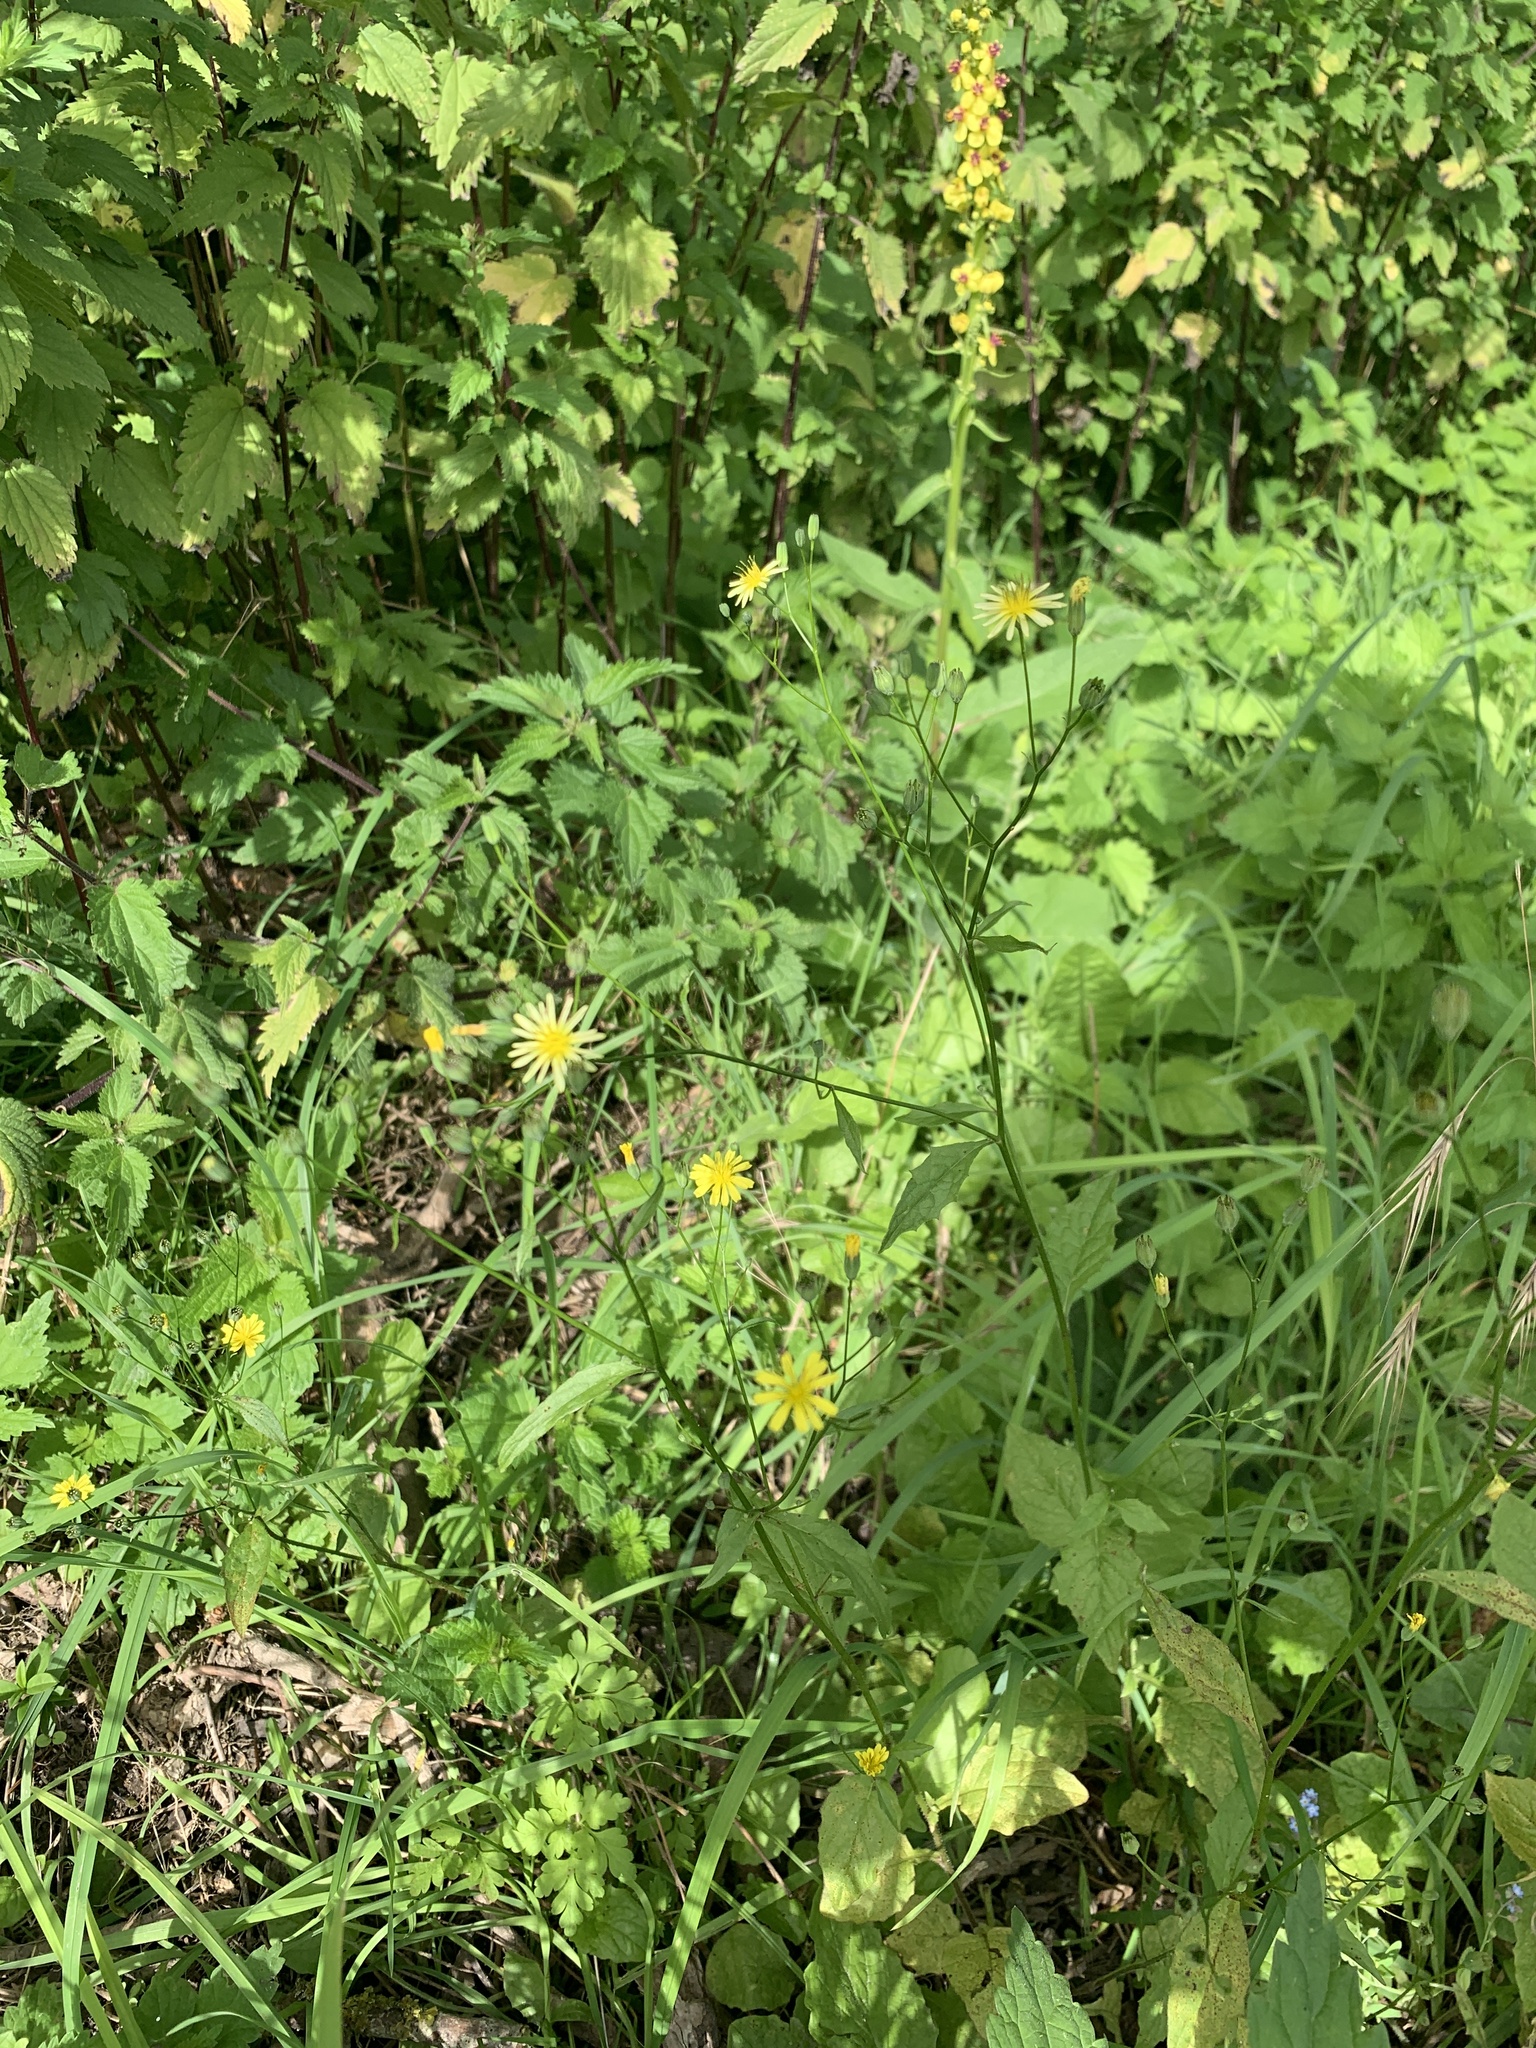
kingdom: Plantae
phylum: Tracheophyta
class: Magnoliopsida
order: Asterales
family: Asteraceae
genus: Lapsana
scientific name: Lapsana communis
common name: Nipplewort
